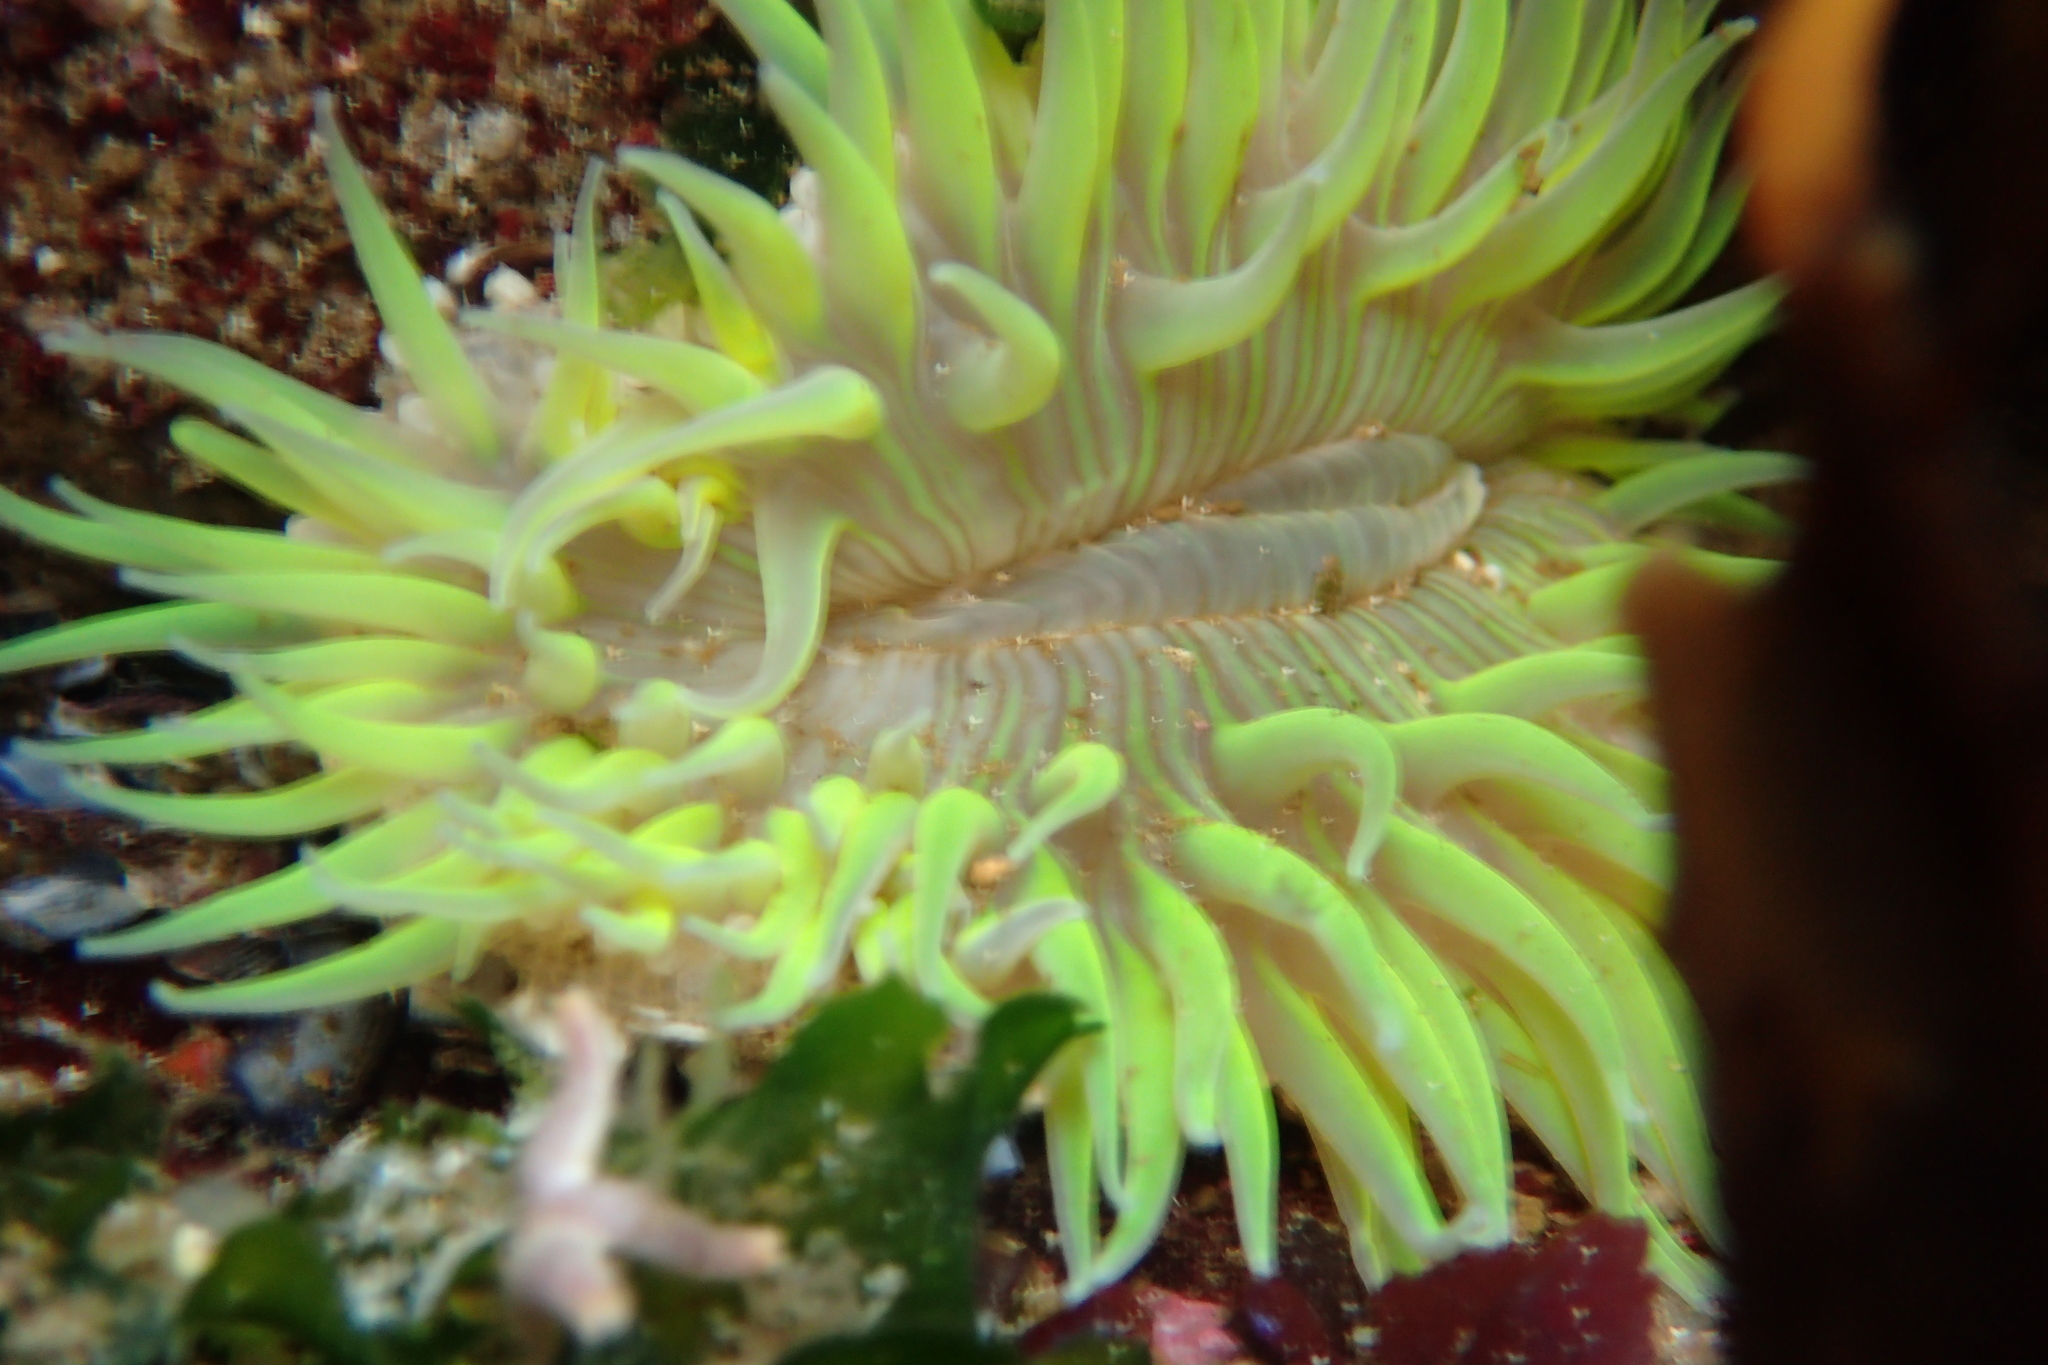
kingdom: Animalia
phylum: Cnidaria
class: Anthozoa
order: Actiniaria
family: Actiniidae
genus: Anthopleura
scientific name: Anthopleura sola
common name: Sun anemone
